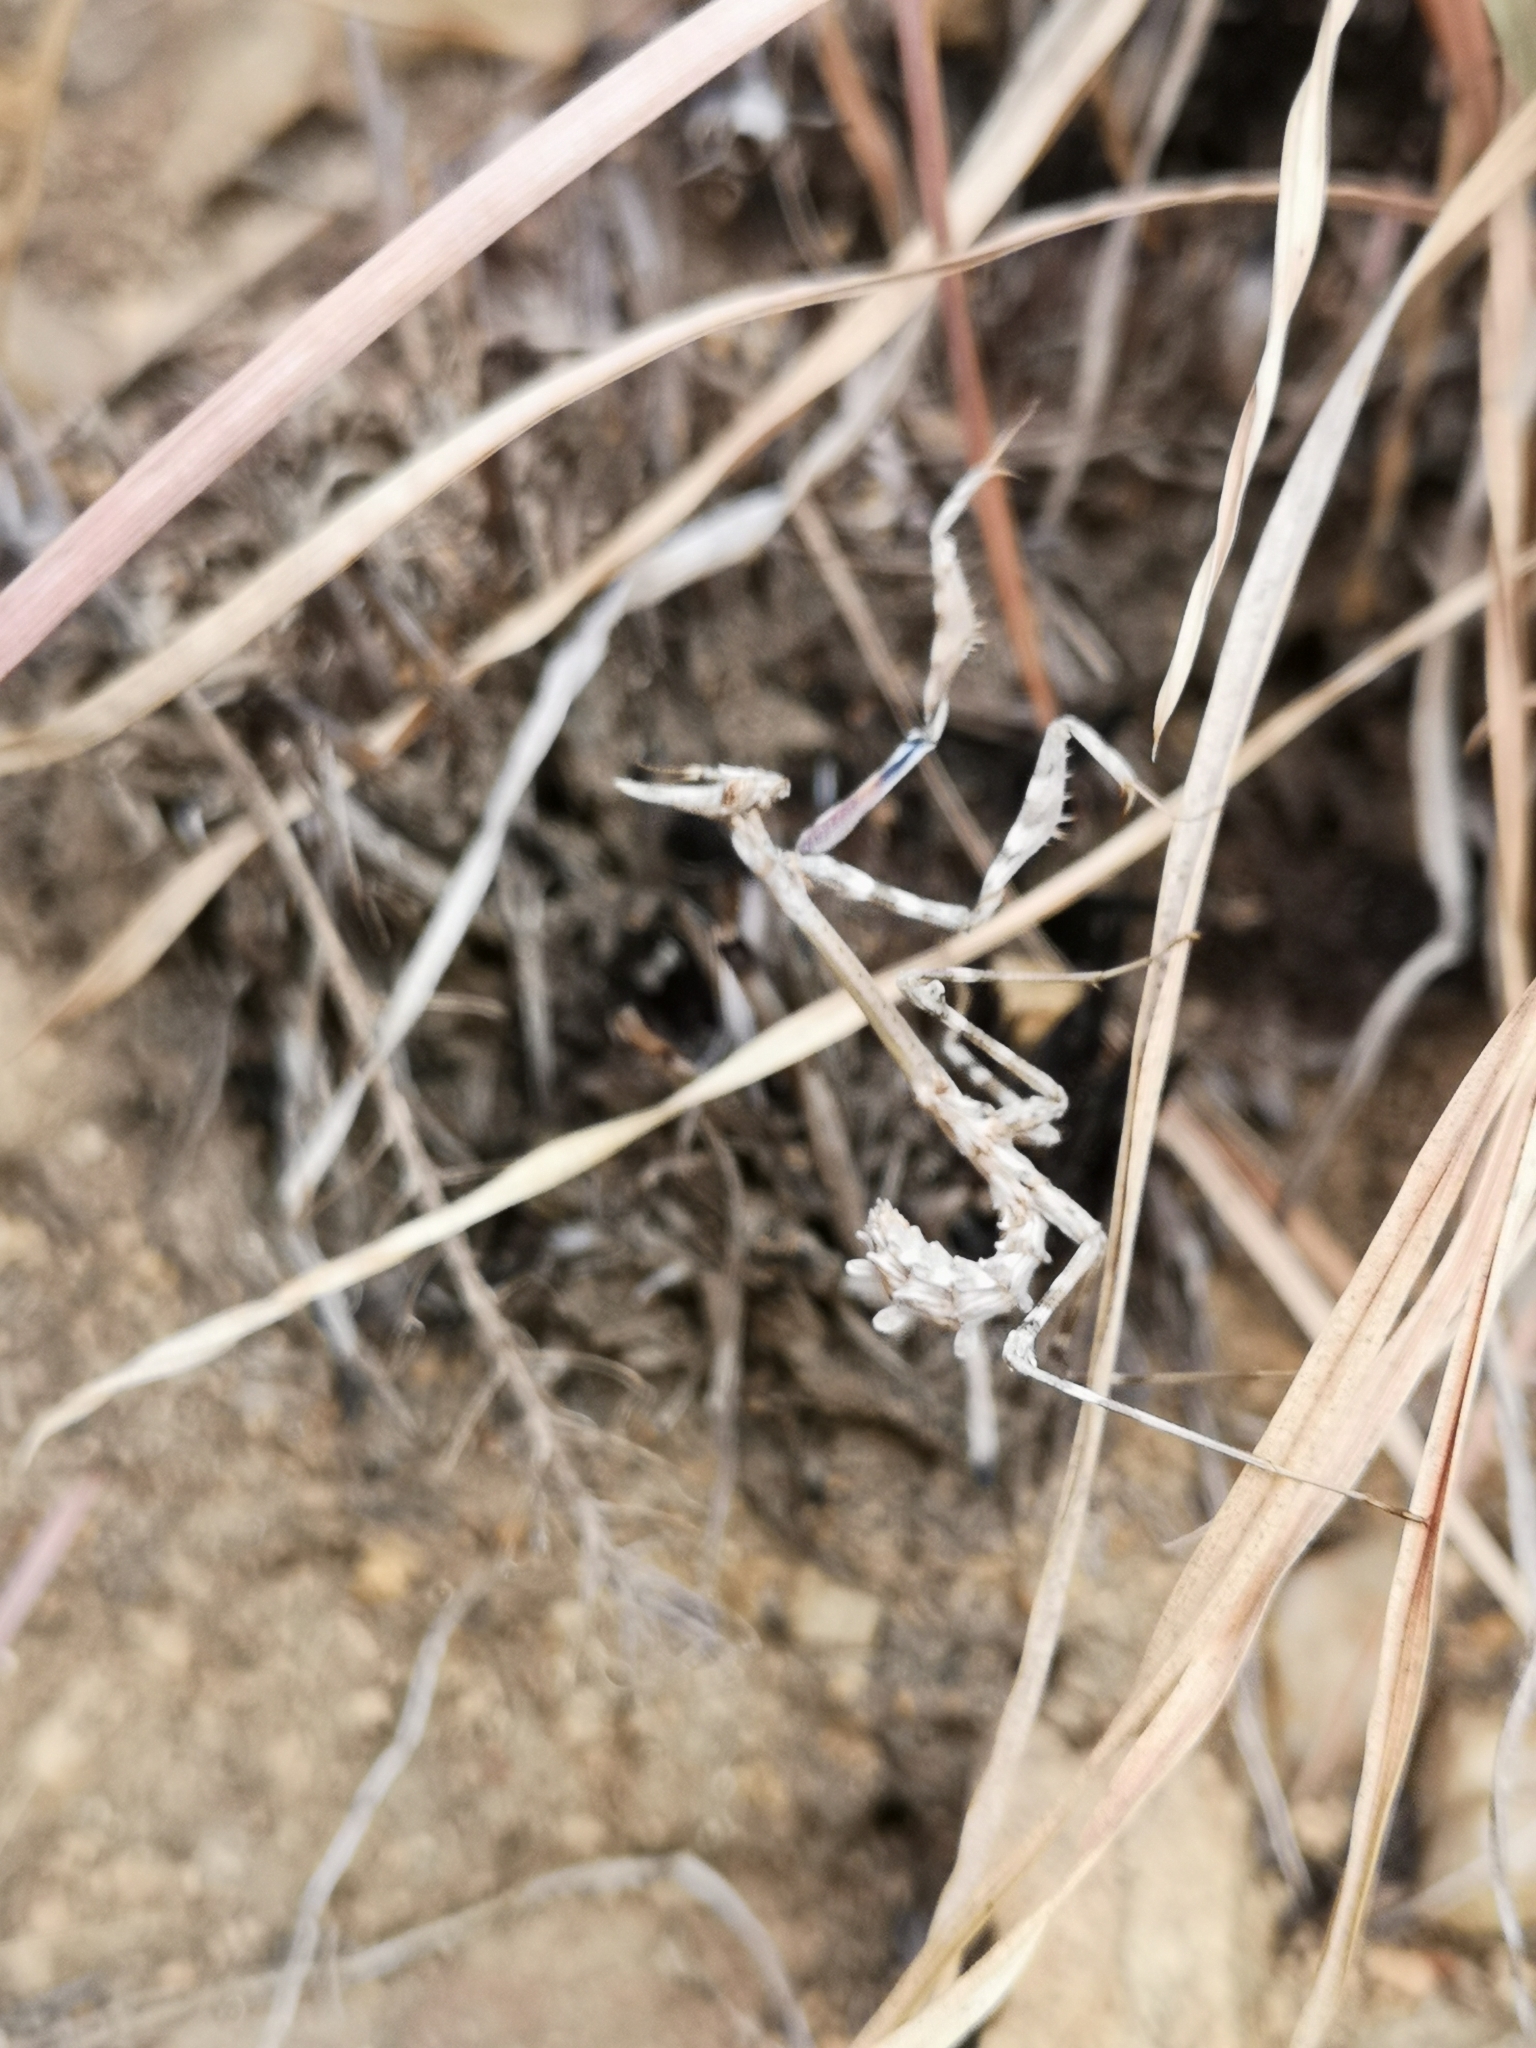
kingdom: Animalia
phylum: Arthropoda
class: Insecta
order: Mantodea
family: Empusidae
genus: Empusa
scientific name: Empusa pennata
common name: Conehead mantis
